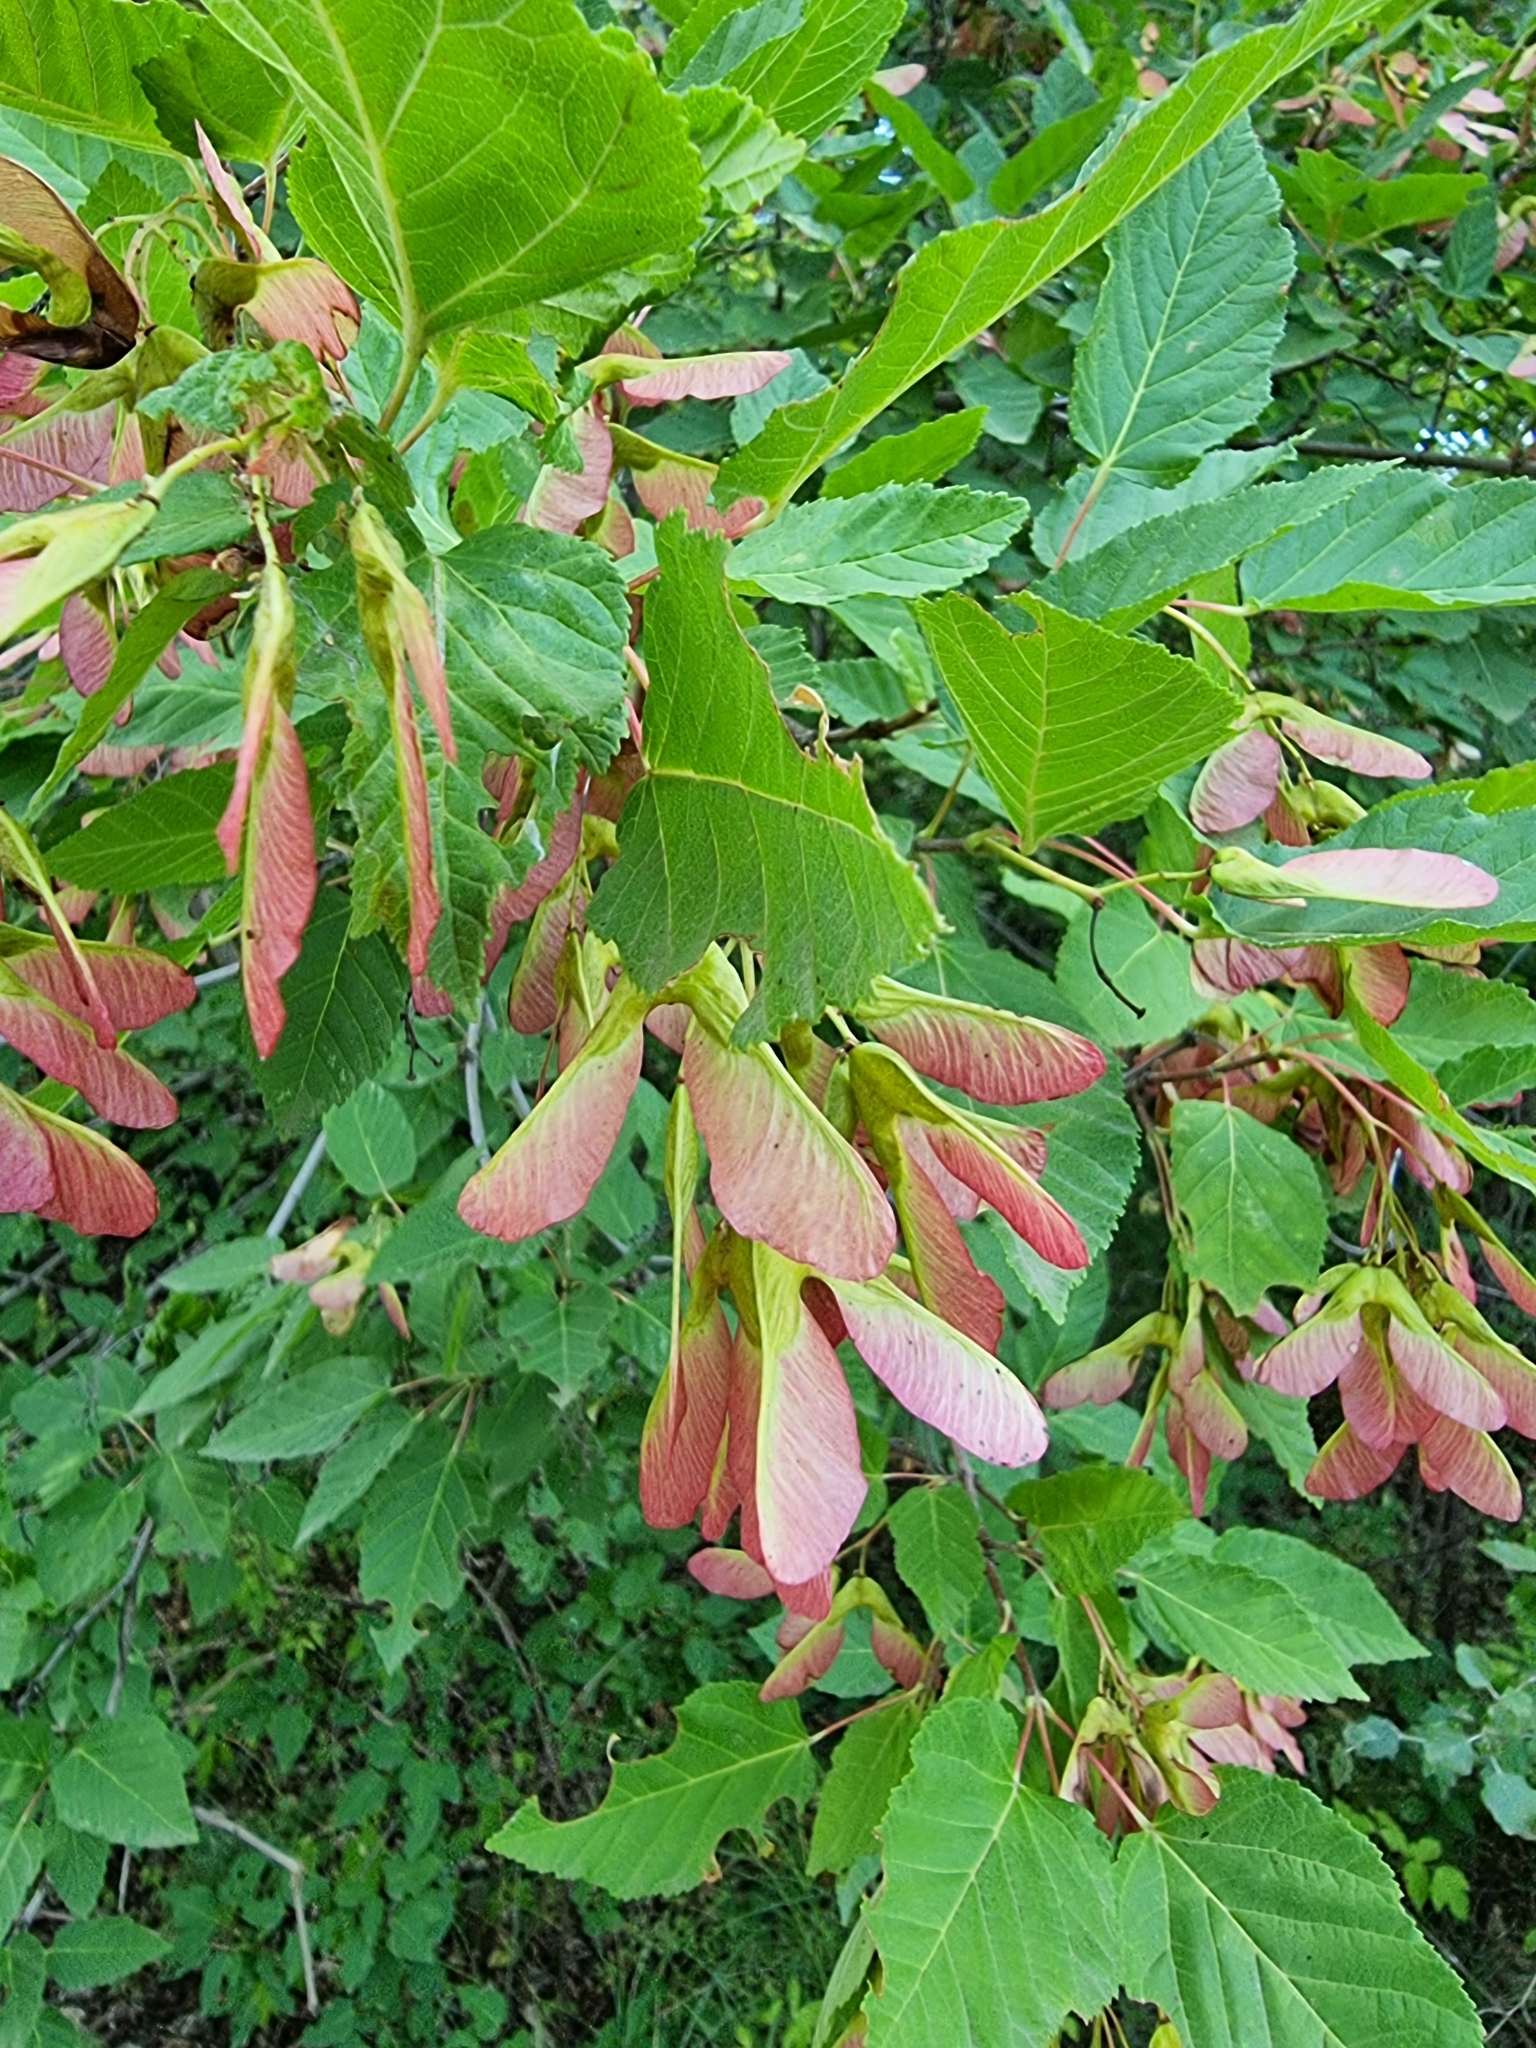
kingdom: Plantae
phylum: Tracheophyta
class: Magnoliopsida
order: Sapindales
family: Sapindaceae
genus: Acer
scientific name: Acer tataricum
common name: Tartar maple
